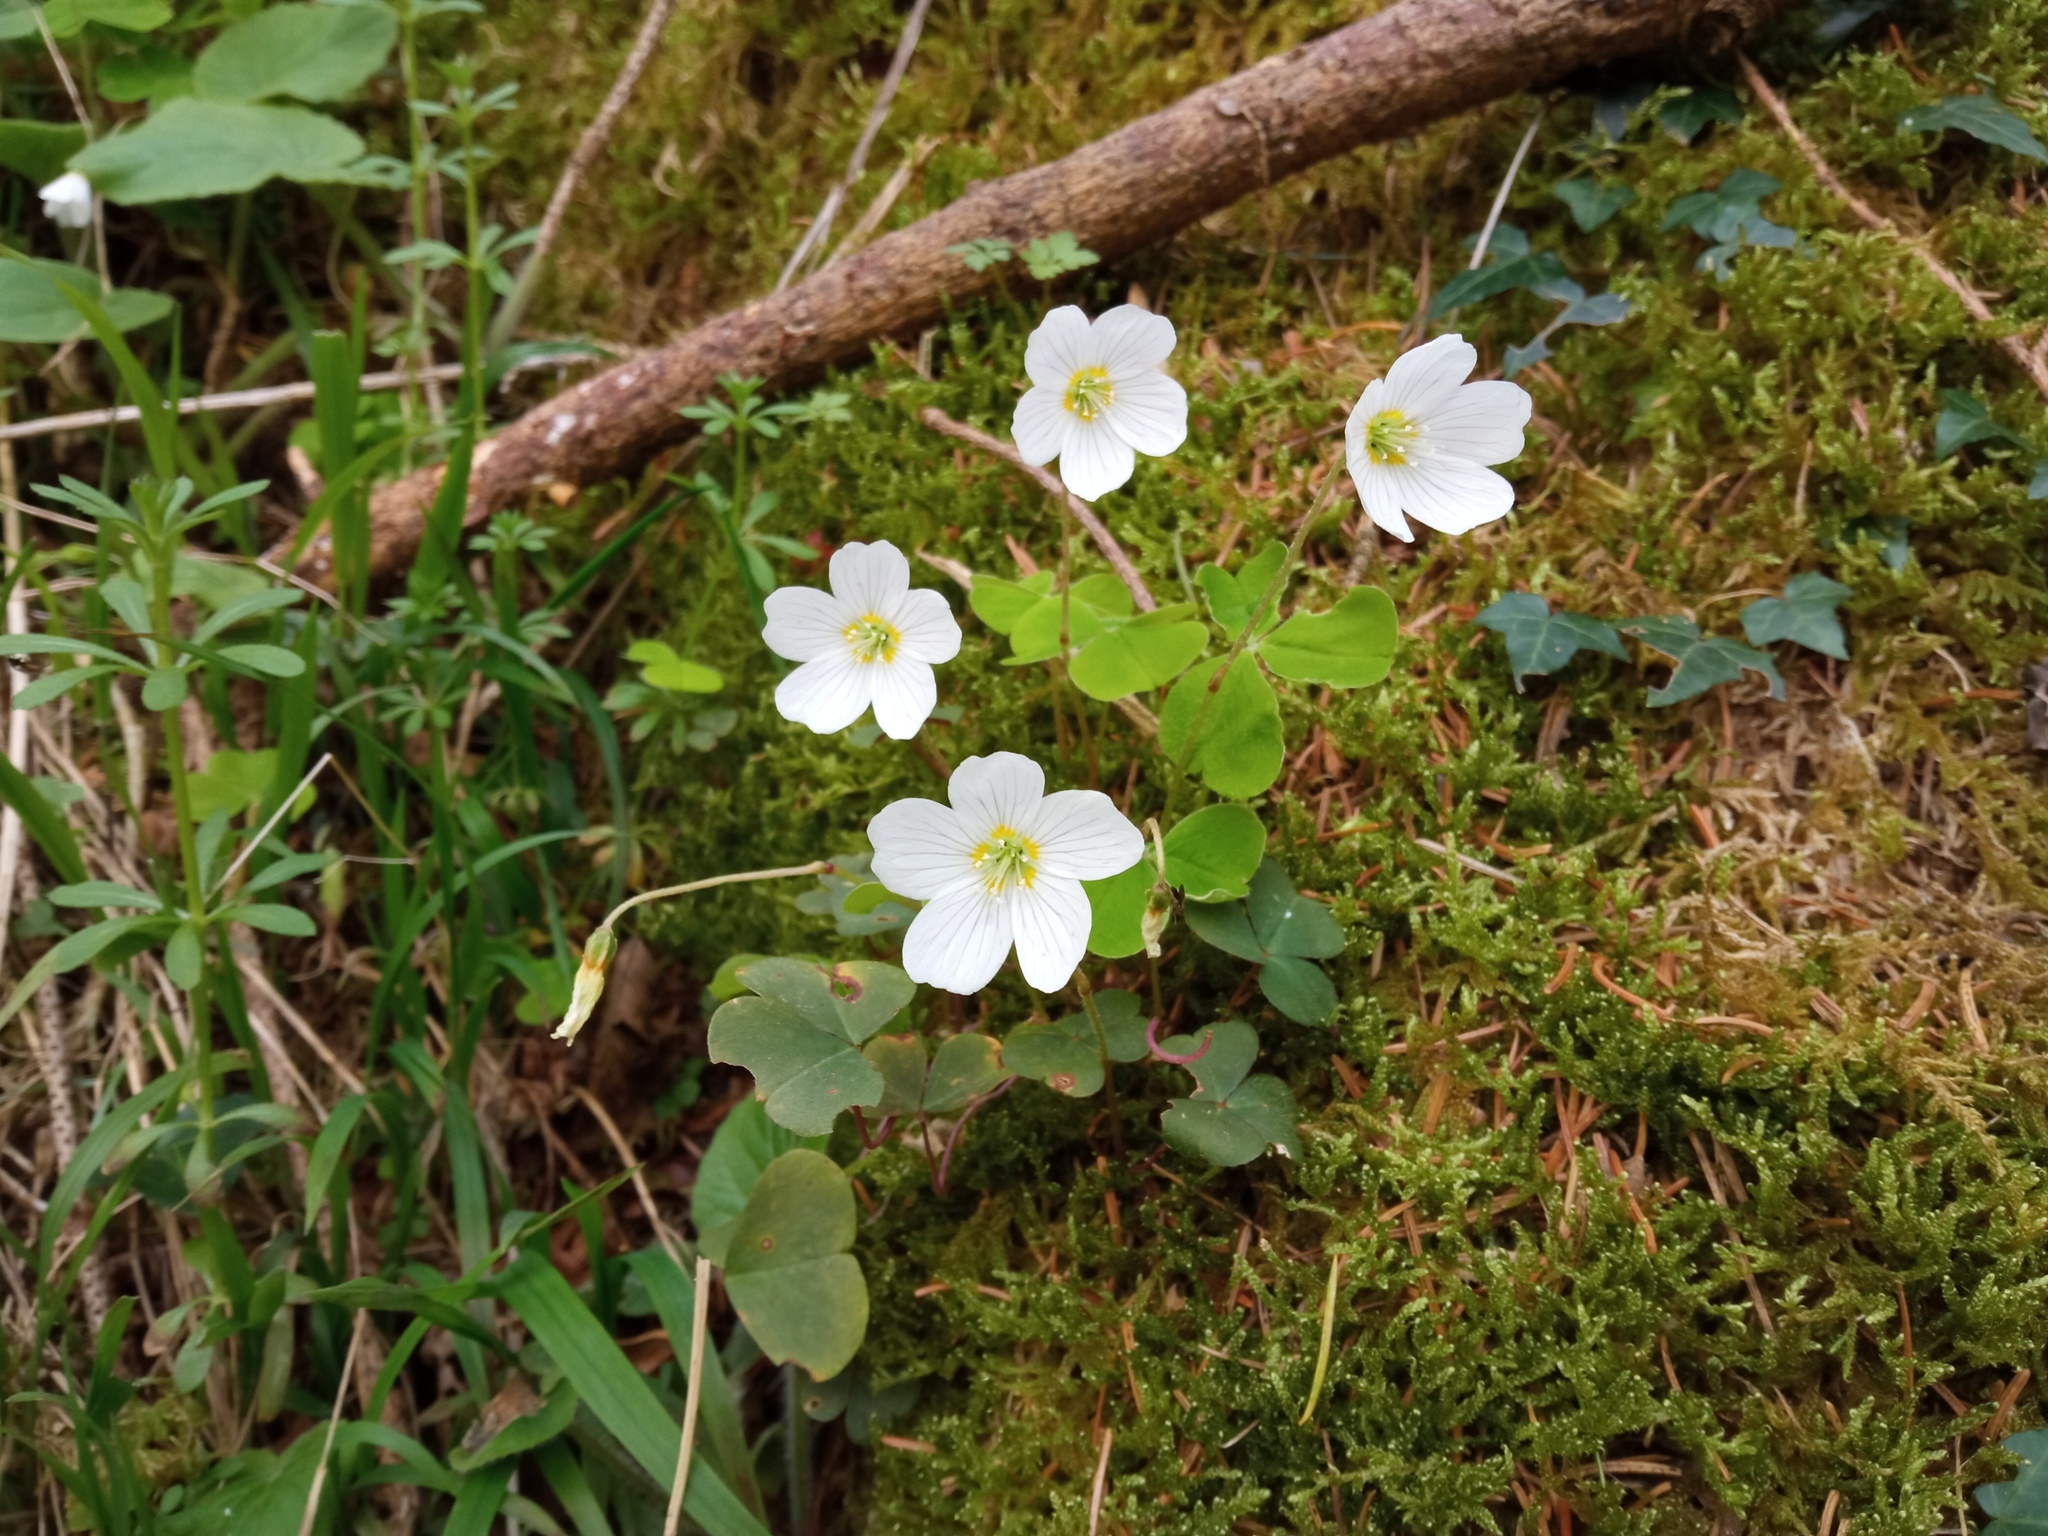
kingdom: Plantae
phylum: Tracheophyta
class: Magnoliopsida
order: Oxalidales
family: Oxalidaceae
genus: Oxalis
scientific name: Oxalis acetosella
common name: Wood-sorrel
